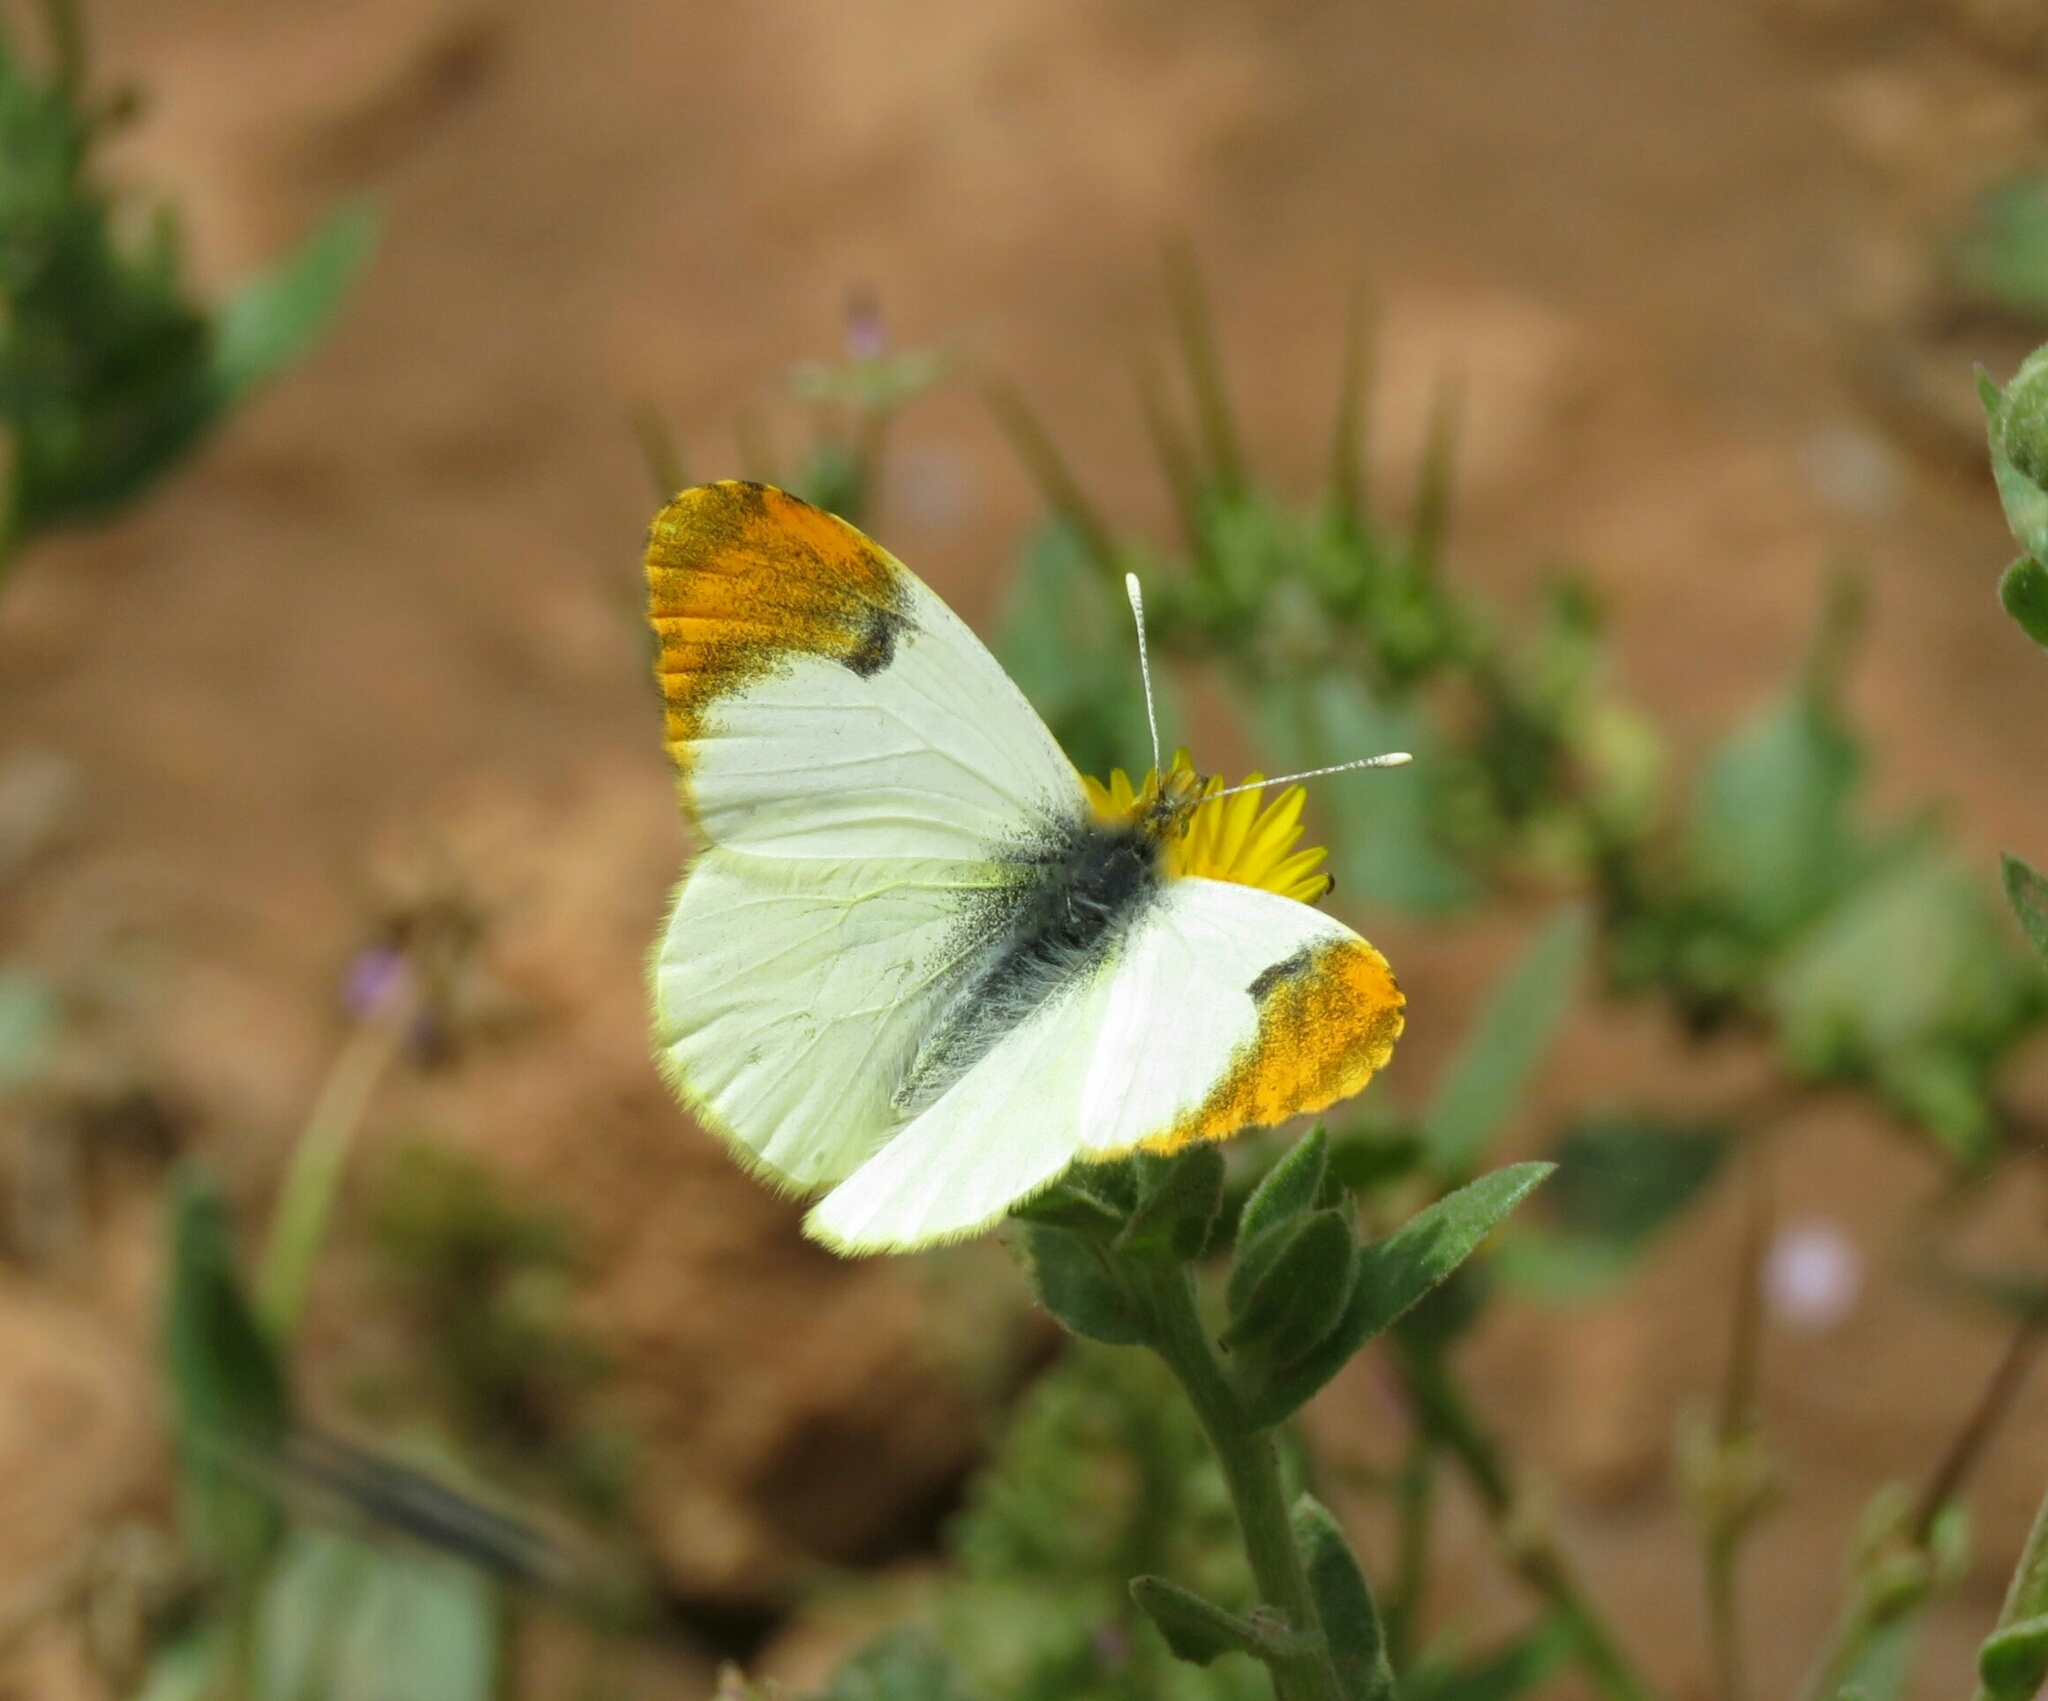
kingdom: Animalia
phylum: Arthropoda
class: Insecta
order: Lepidoptera
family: Pieridae
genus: Anthocharis
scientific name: Anthocharis belia
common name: Moroccan orange tip
